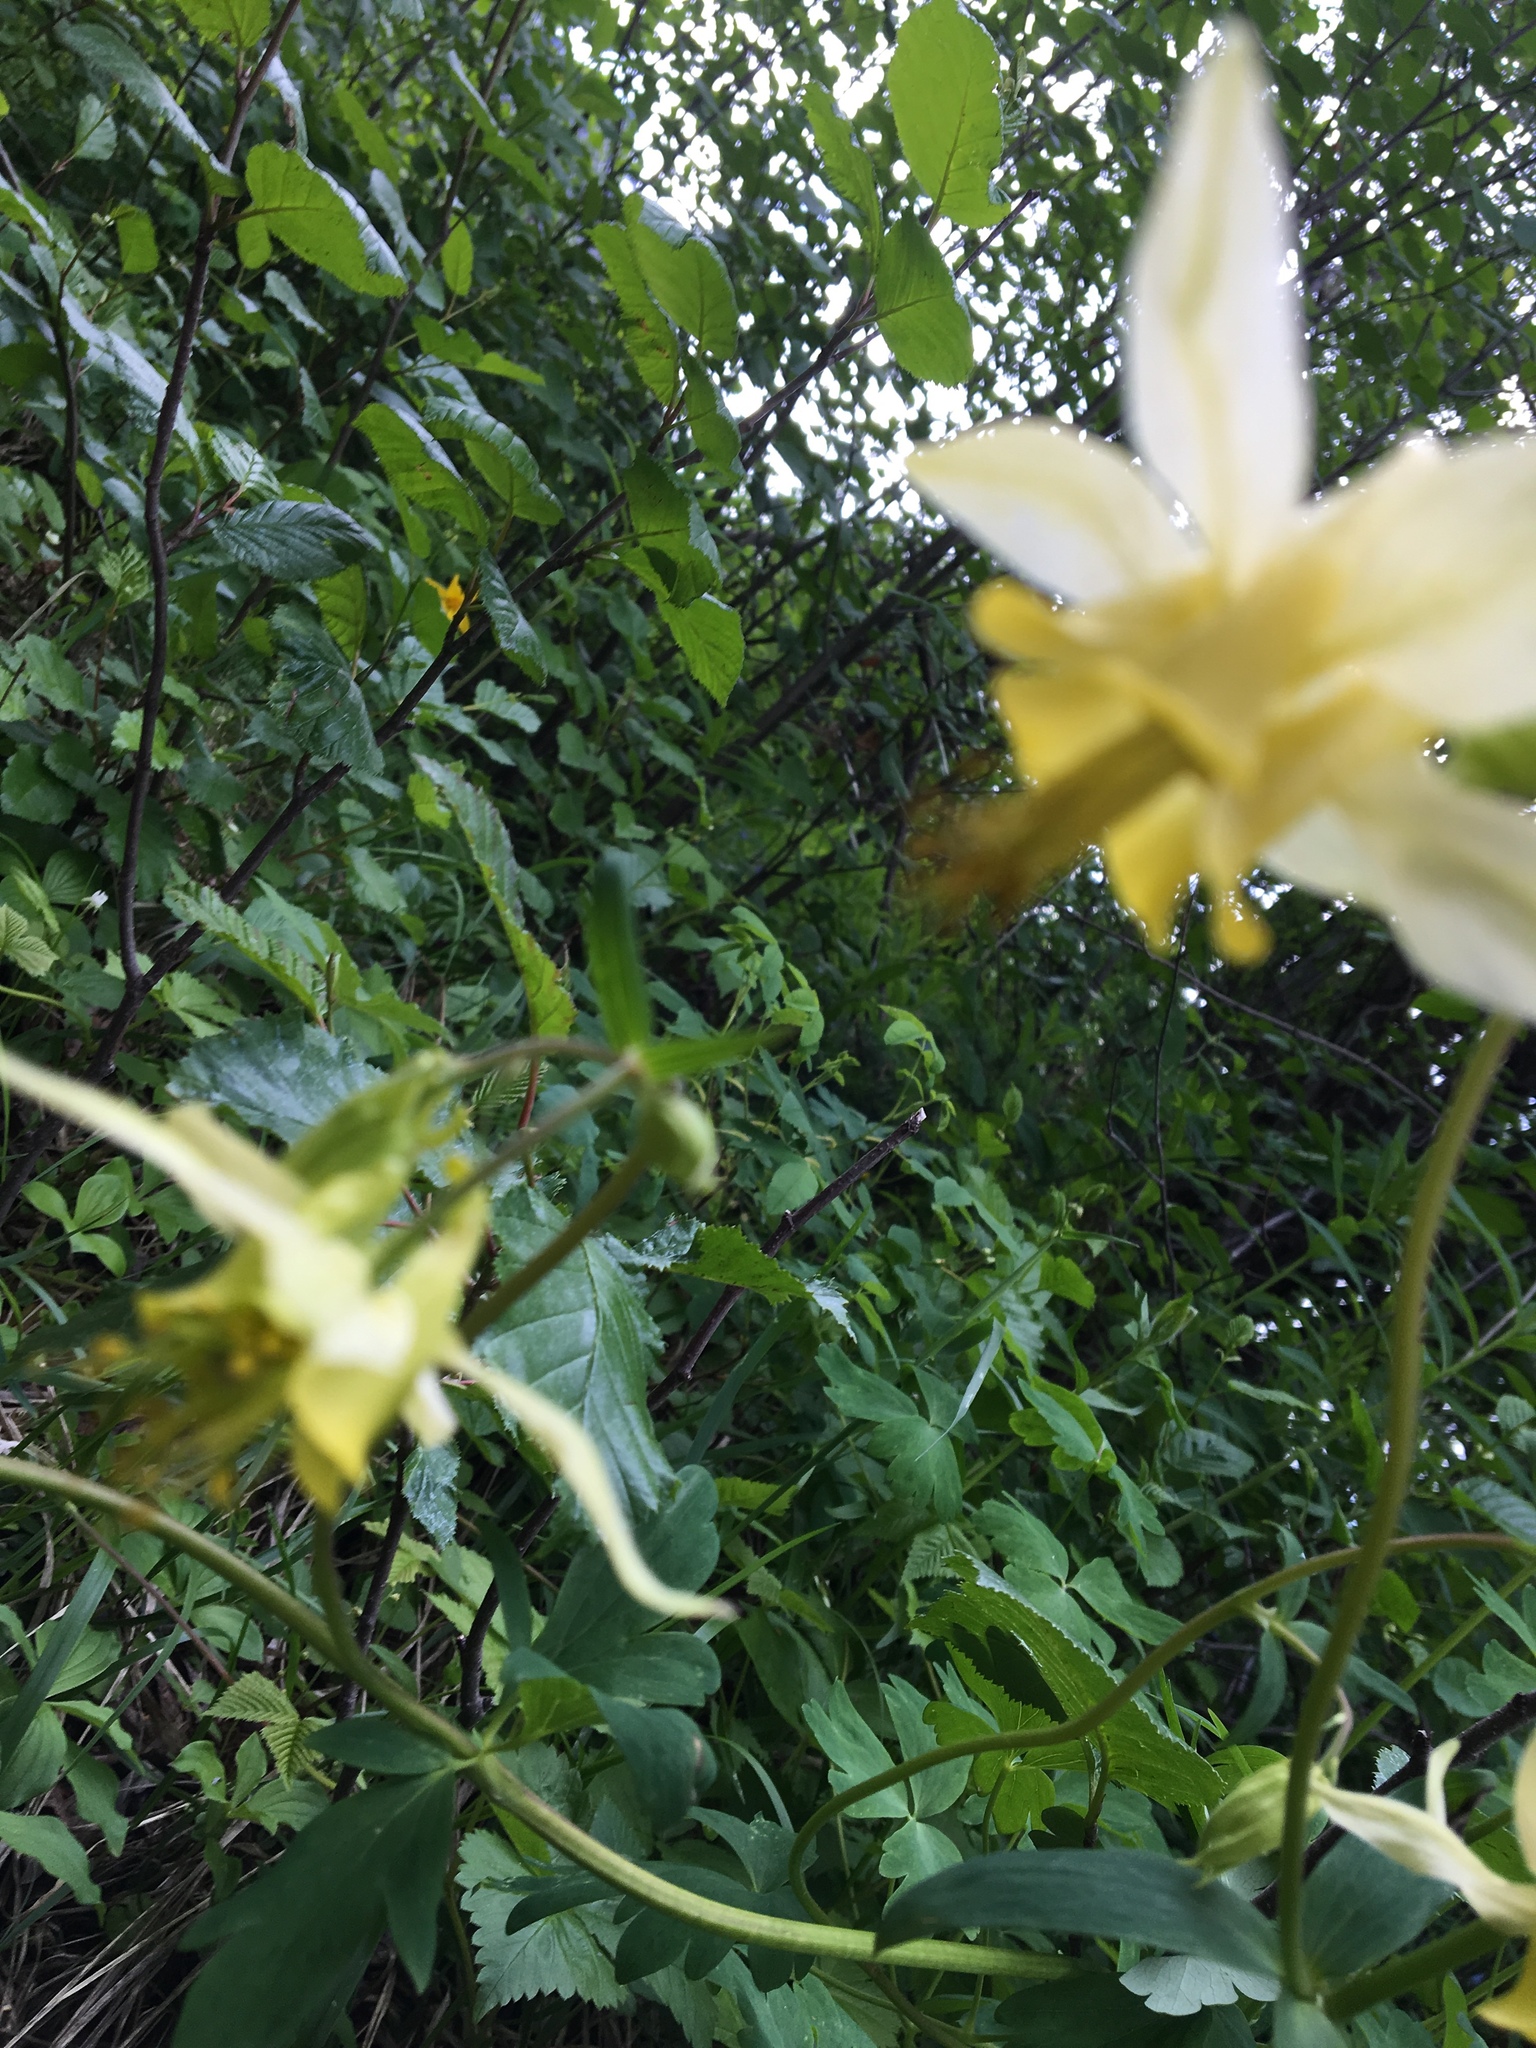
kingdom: Plantae
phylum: Tracheophyta
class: Magnoliopsida
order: Ranunculales
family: Ranunculaceae
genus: Aquilegia
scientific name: Aquilegia flavescens
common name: Yellow columbine
